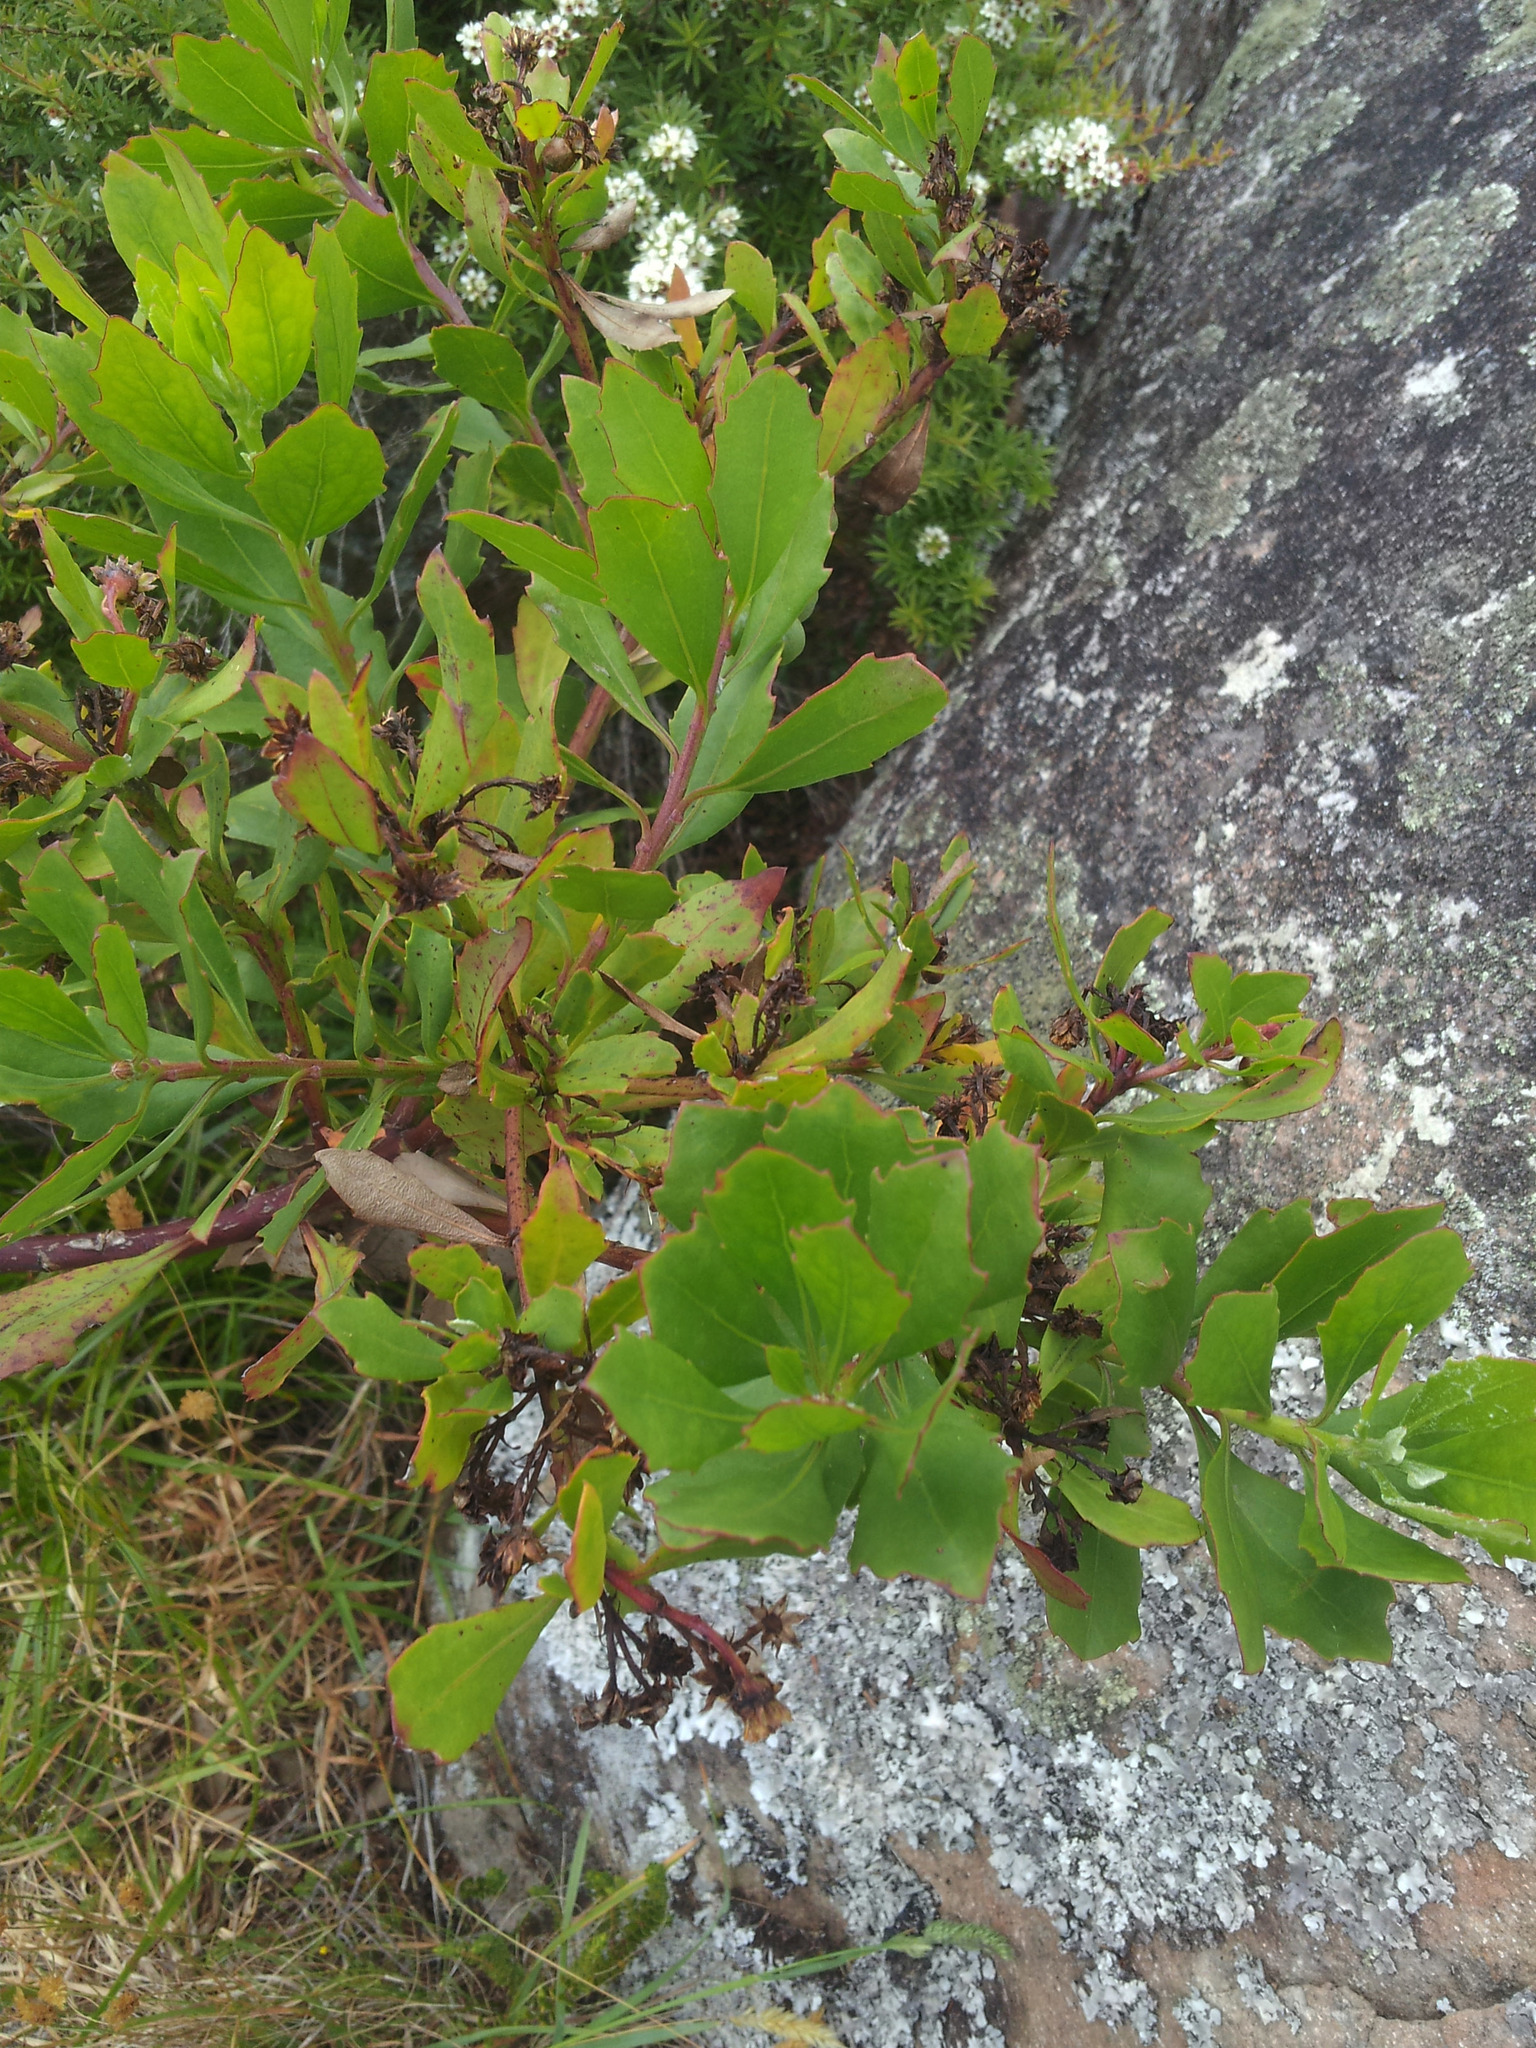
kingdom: Plantae
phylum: Tracheophyta
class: Magnoliopsida
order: Asterales
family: Asteraceae
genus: Osteospermum
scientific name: Osteospermum moniliferum
